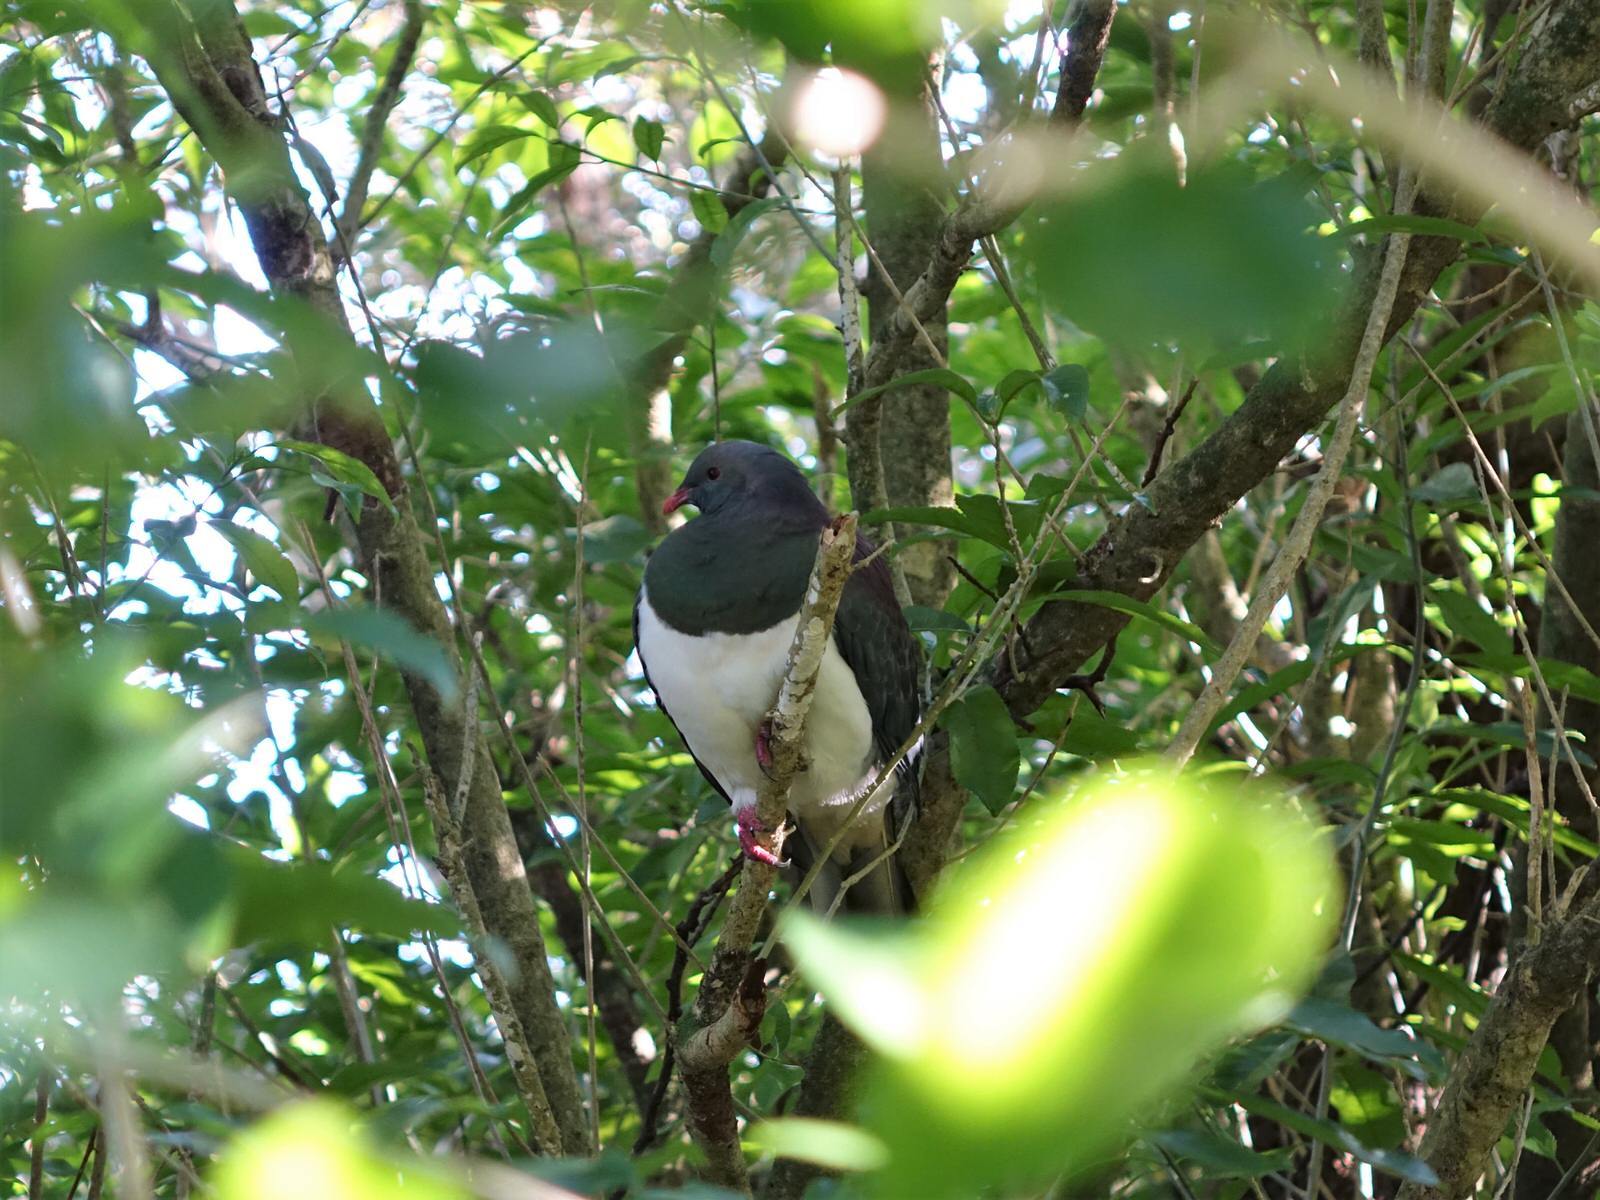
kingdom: Animalia
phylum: Chordata
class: Aves
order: Columbiformes
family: Columbidae
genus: Hemiphaga
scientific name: Hemiphaga novaeseelandiae
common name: New zealand pigeon
